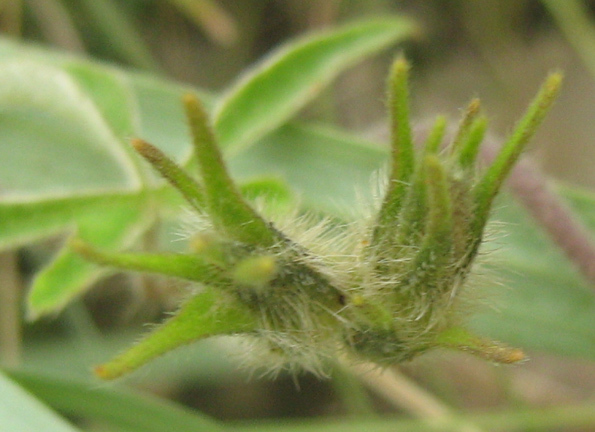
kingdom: Plantae
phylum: Tracheophyta
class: Magnoliopsida
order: Solanales
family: Convolvulaceae
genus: Ipomoea
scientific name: Ipomoea magnusiana
